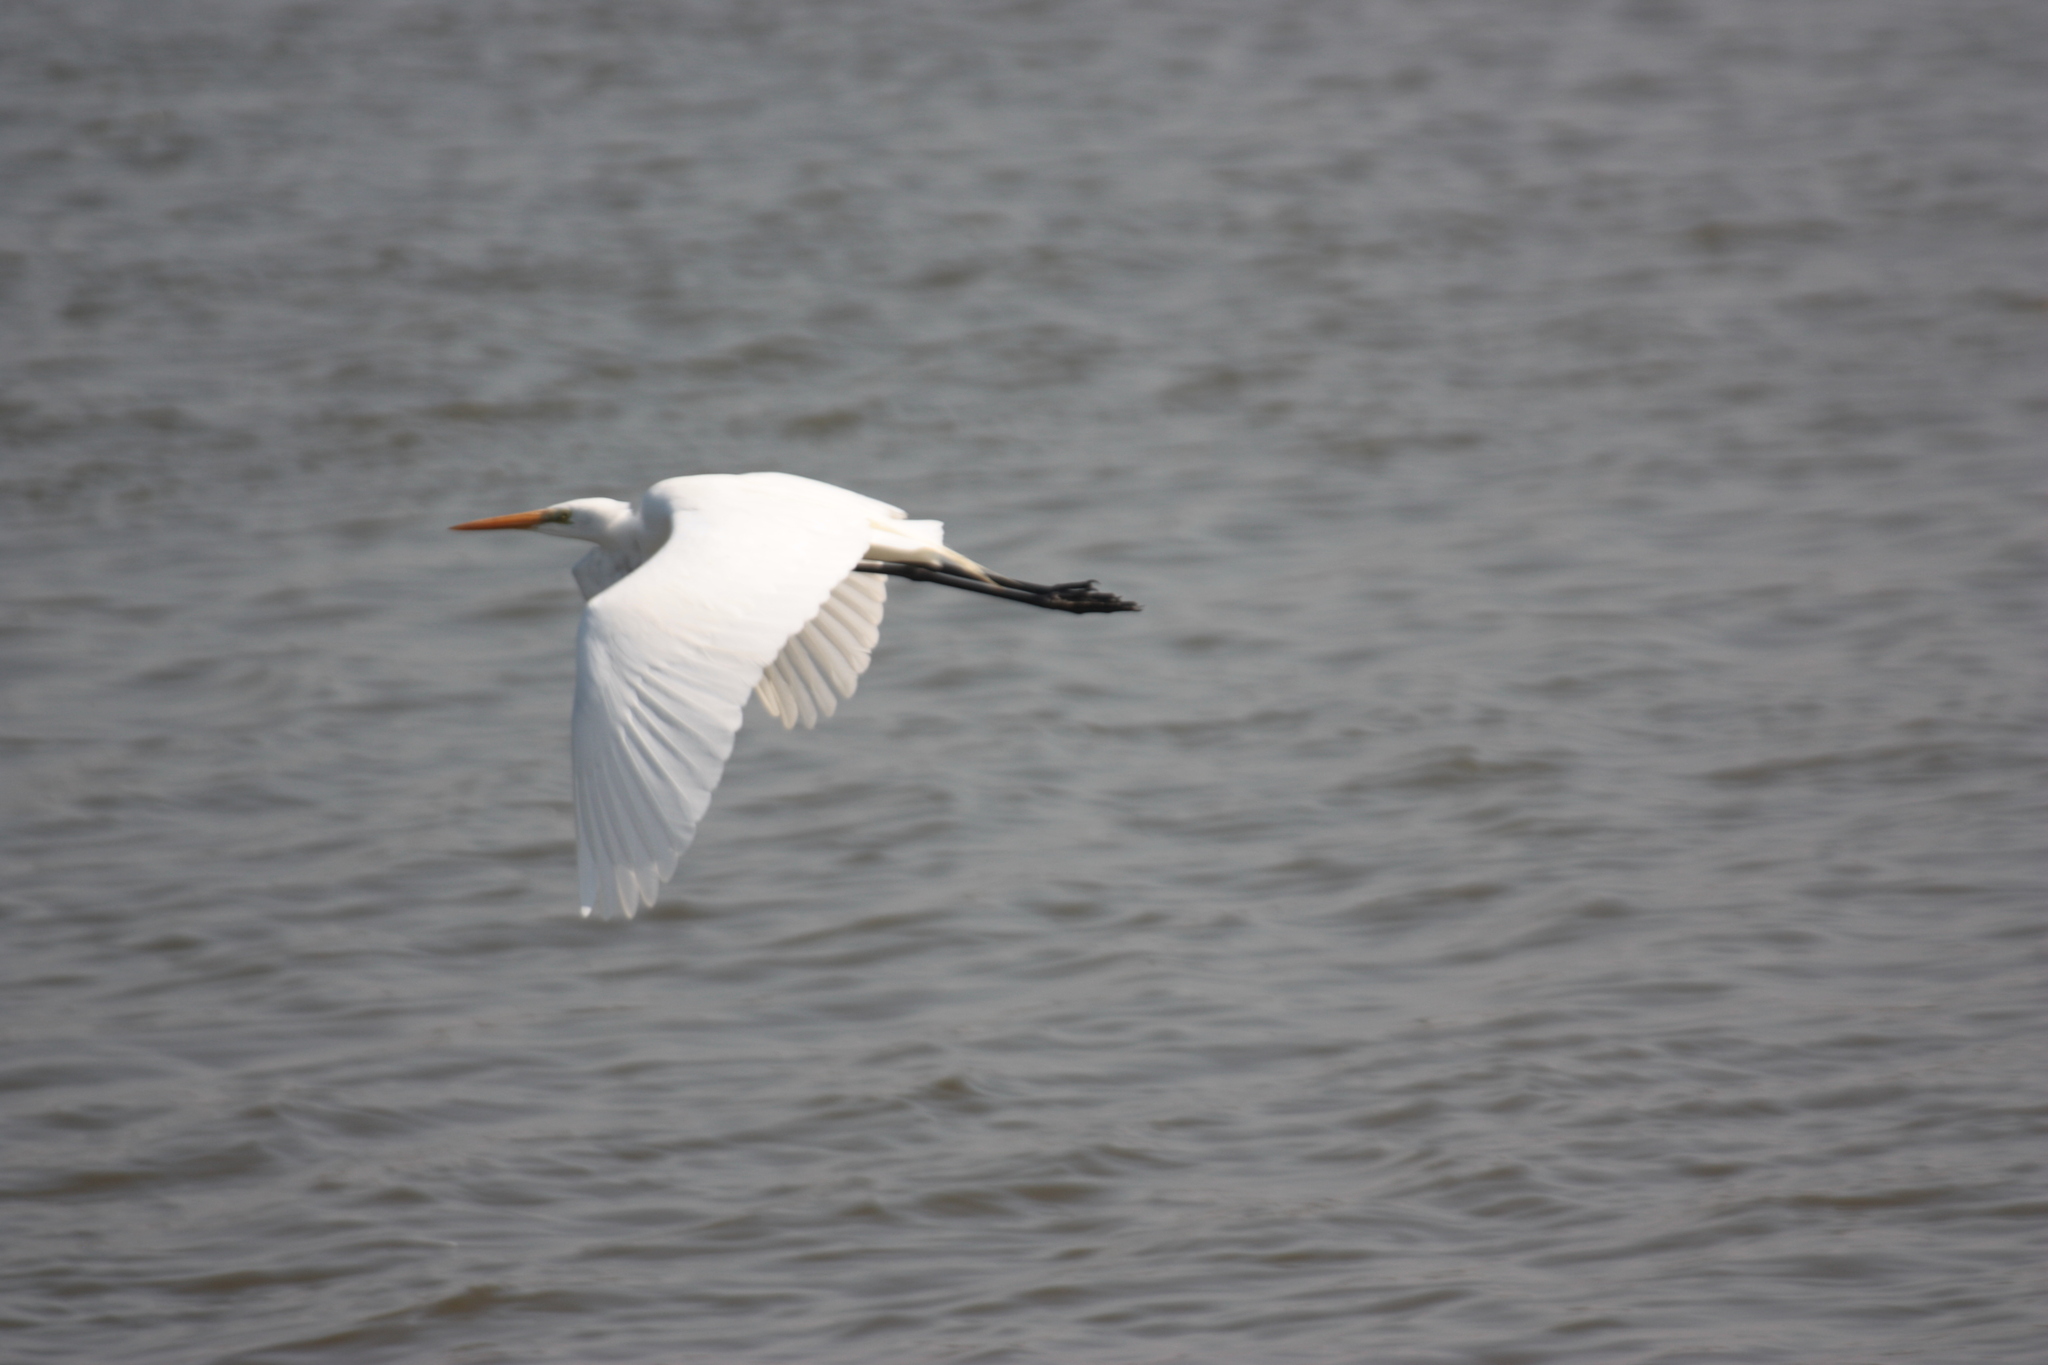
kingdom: Animalia
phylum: Chordata
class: Aves
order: Pelecaniformes
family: Ardeidae
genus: Ardea
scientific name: Ardea alba
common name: Great egret
